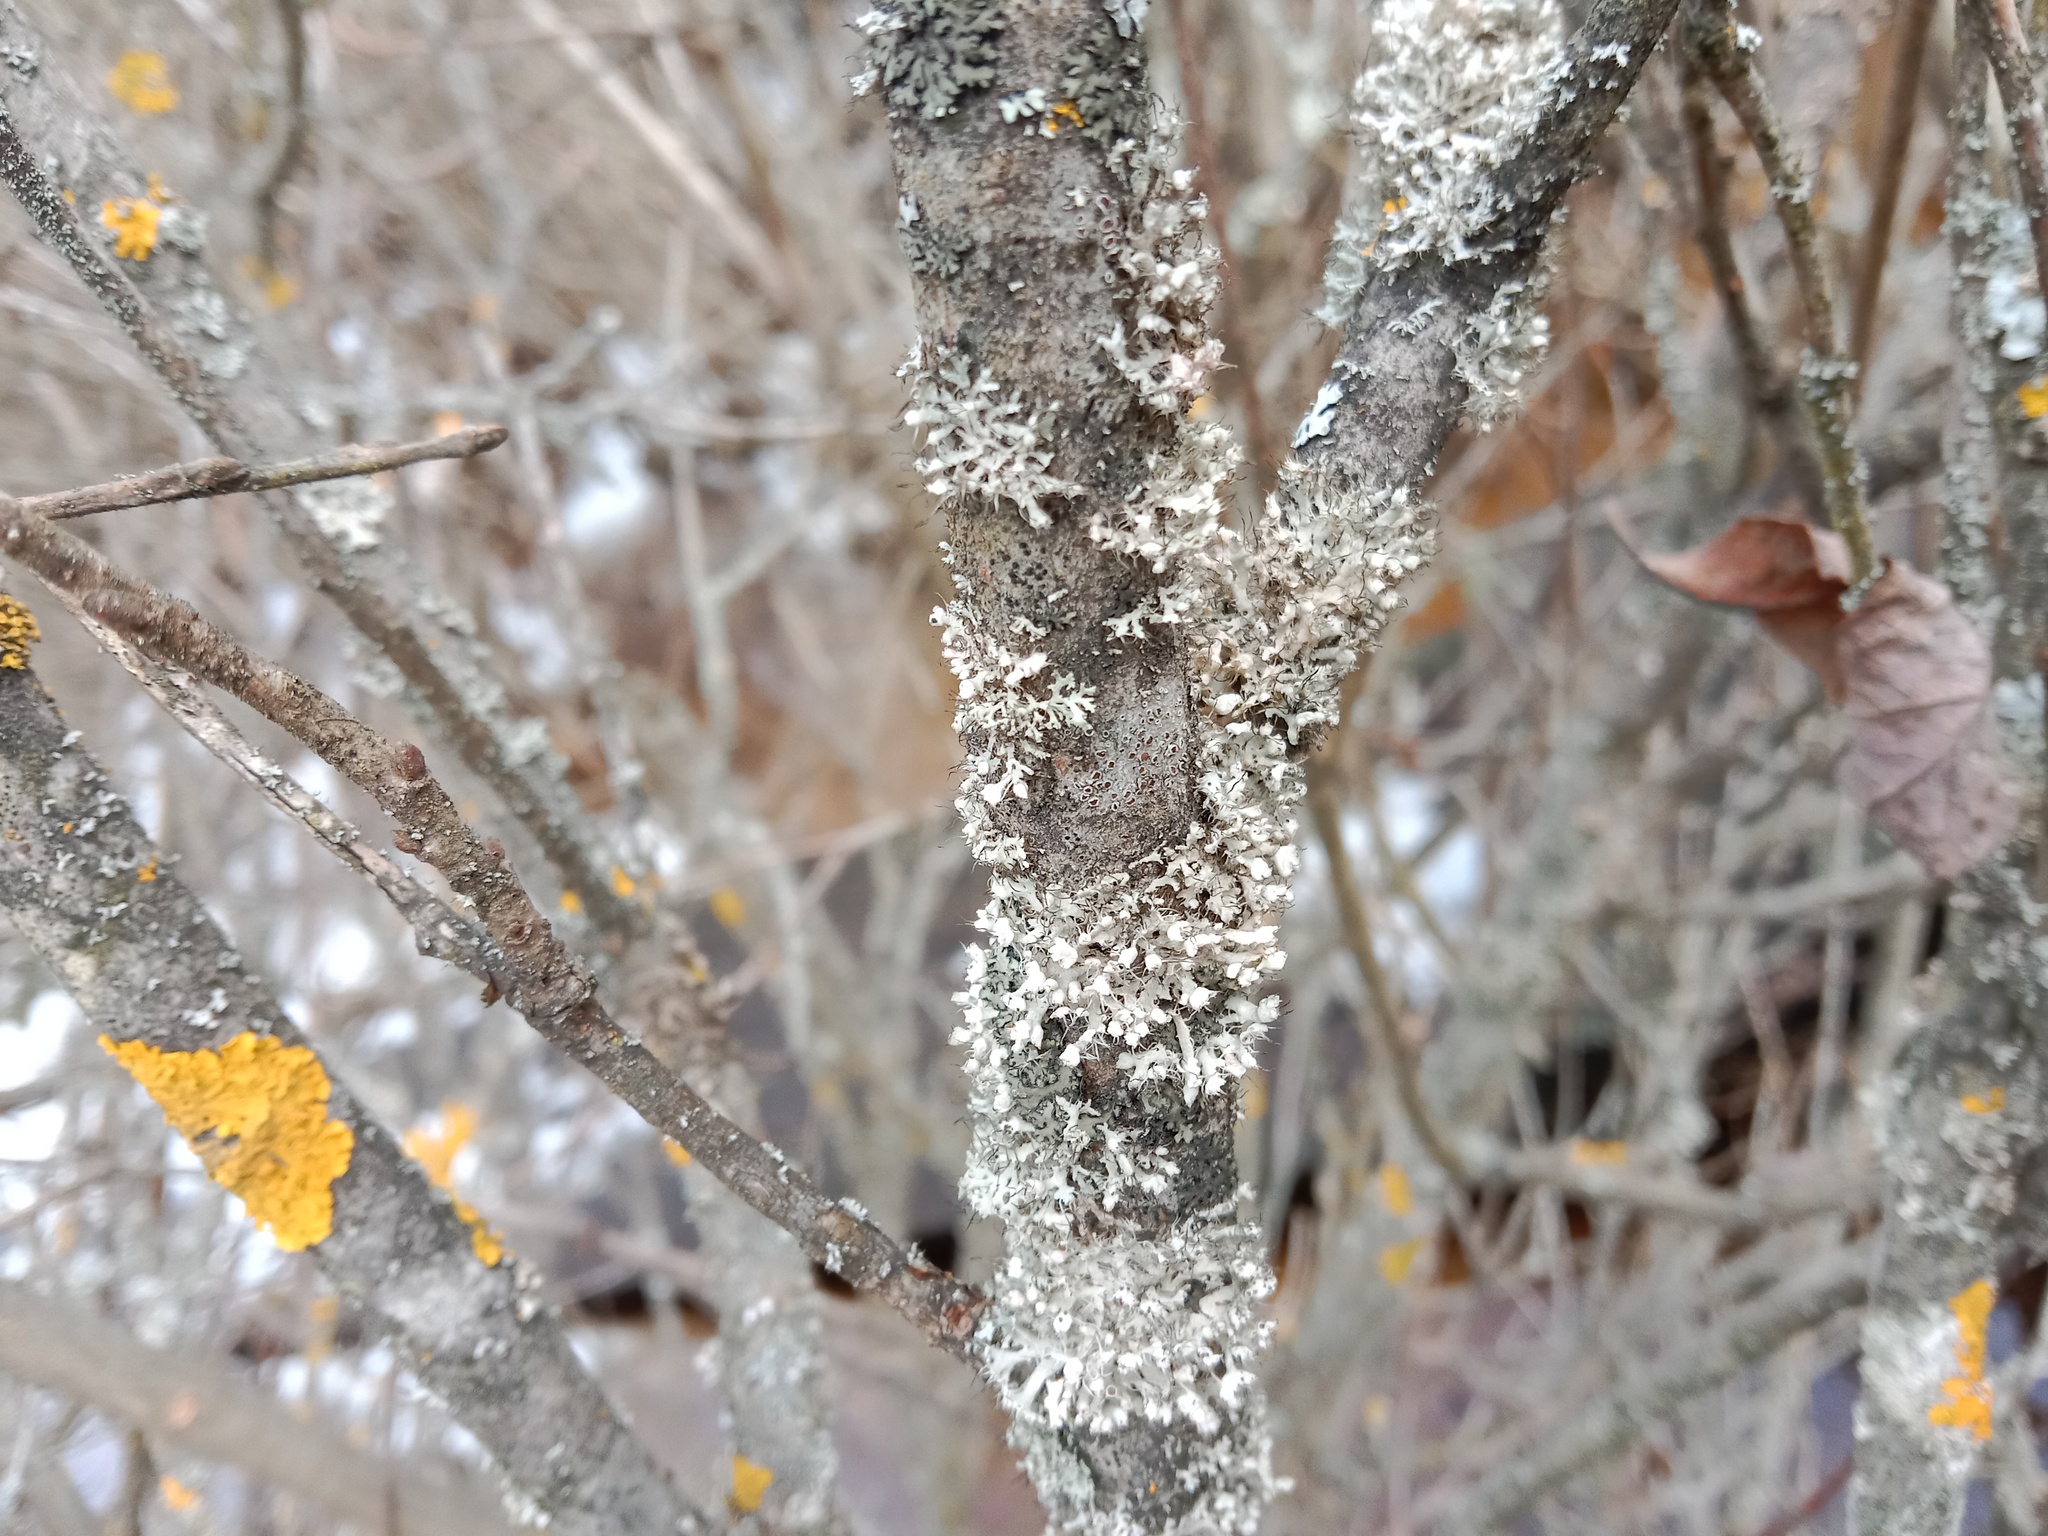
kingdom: Fungi
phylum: Ascomycota
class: Lecanoromycetes
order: Caliciales
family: Physciaceae
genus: Physcia
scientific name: Physcia adscendens
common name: Hooded rosette lichen
